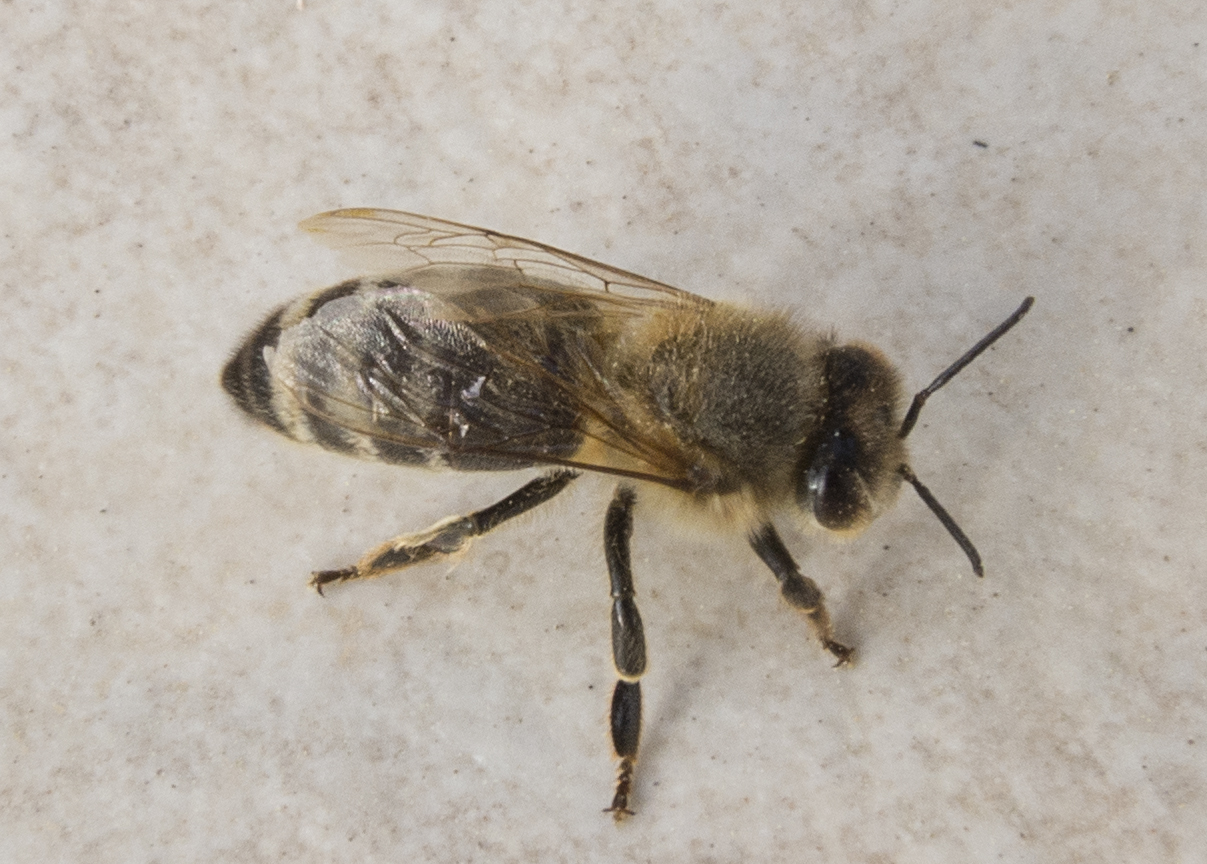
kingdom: Animalia
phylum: Arthropoda
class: Insecta
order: Hymenoptera
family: Apidae
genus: Apis
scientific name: Apis mellifera
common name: Honey bee
